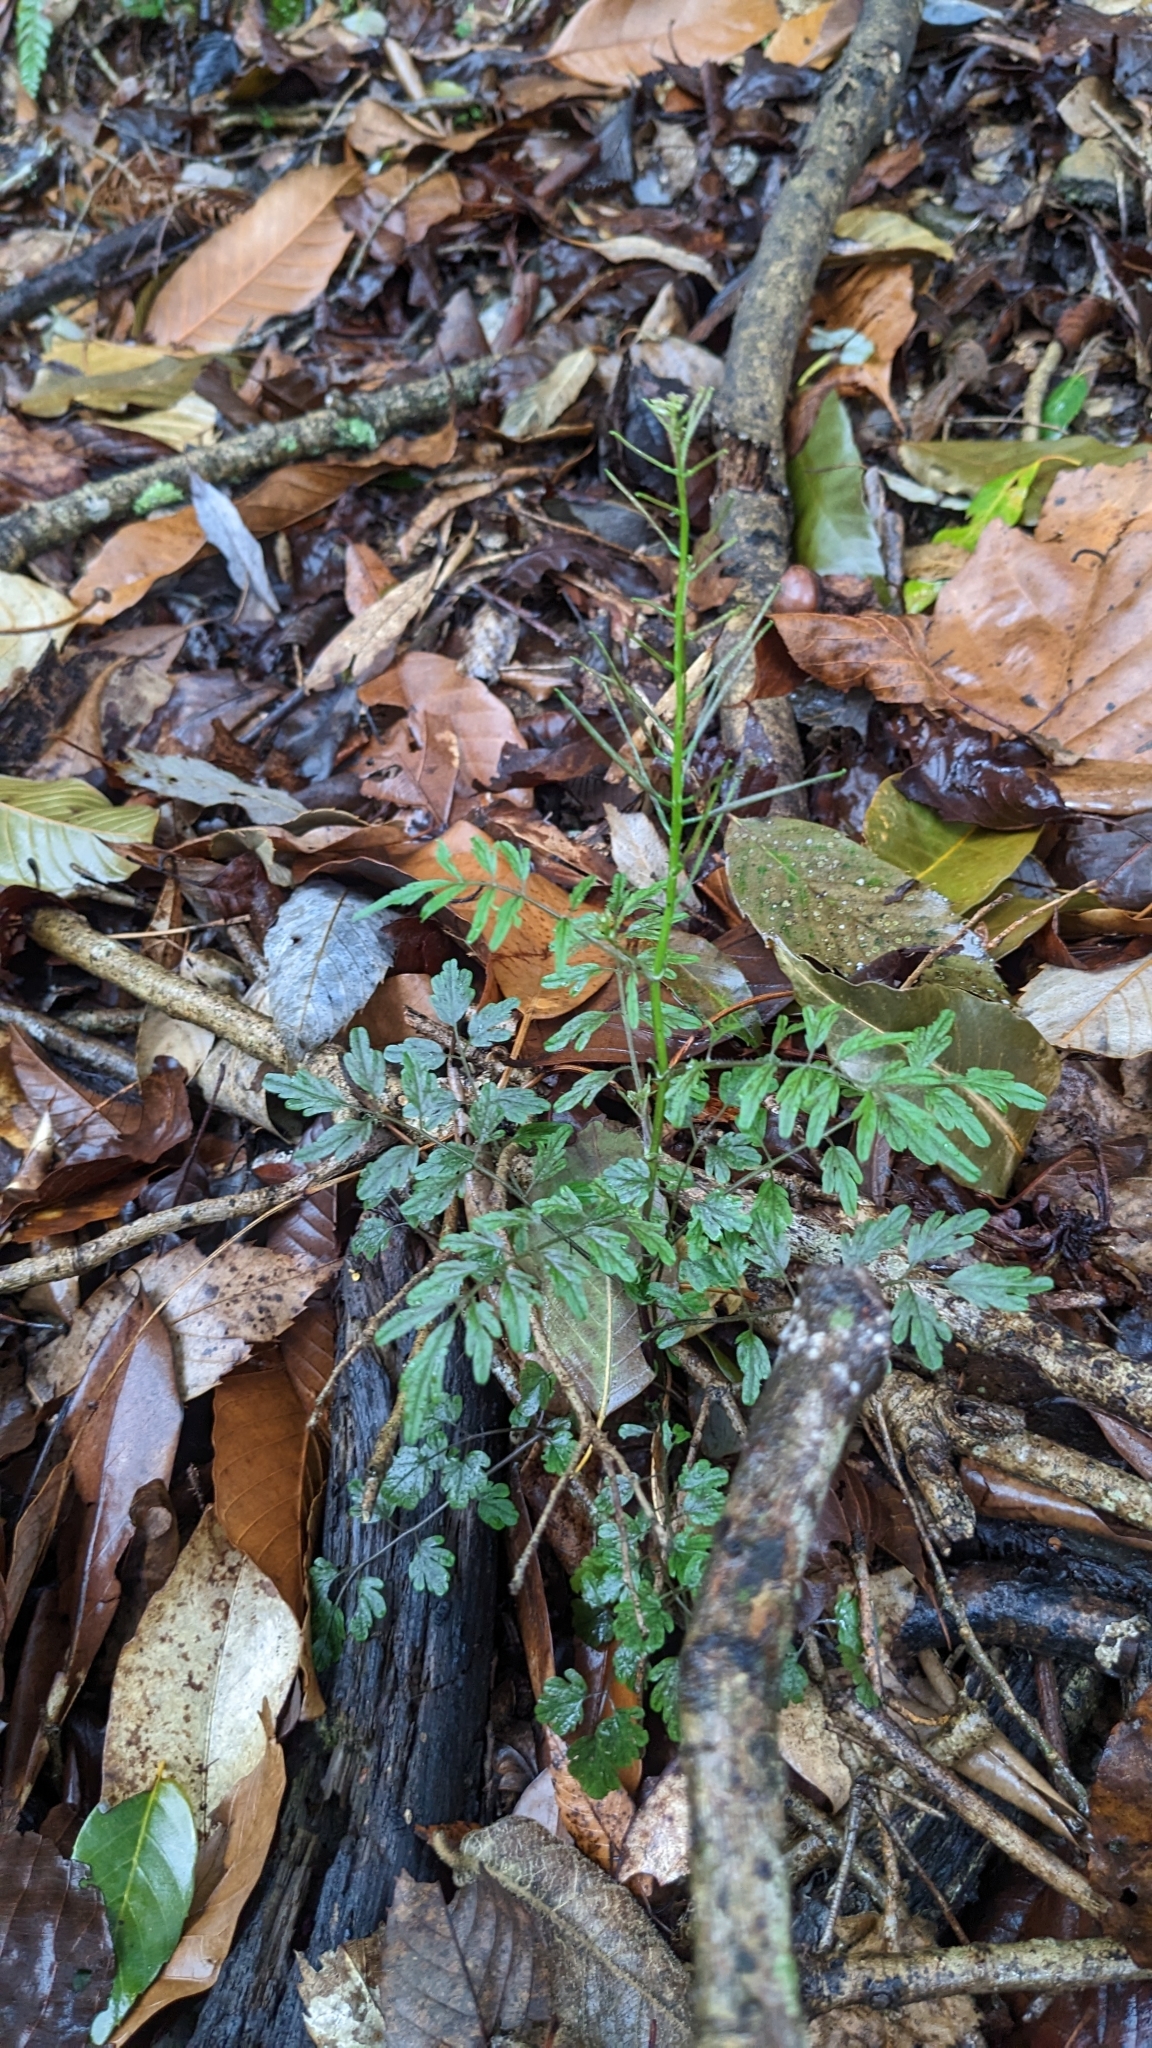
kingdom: Plantae
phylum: Tracheophyta
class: Magnoliopsida
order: Brassicales
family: Brassicaceae
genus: Cardamine
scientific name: Cardamine impatiens
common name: Narrow-leaved bitter-cress
